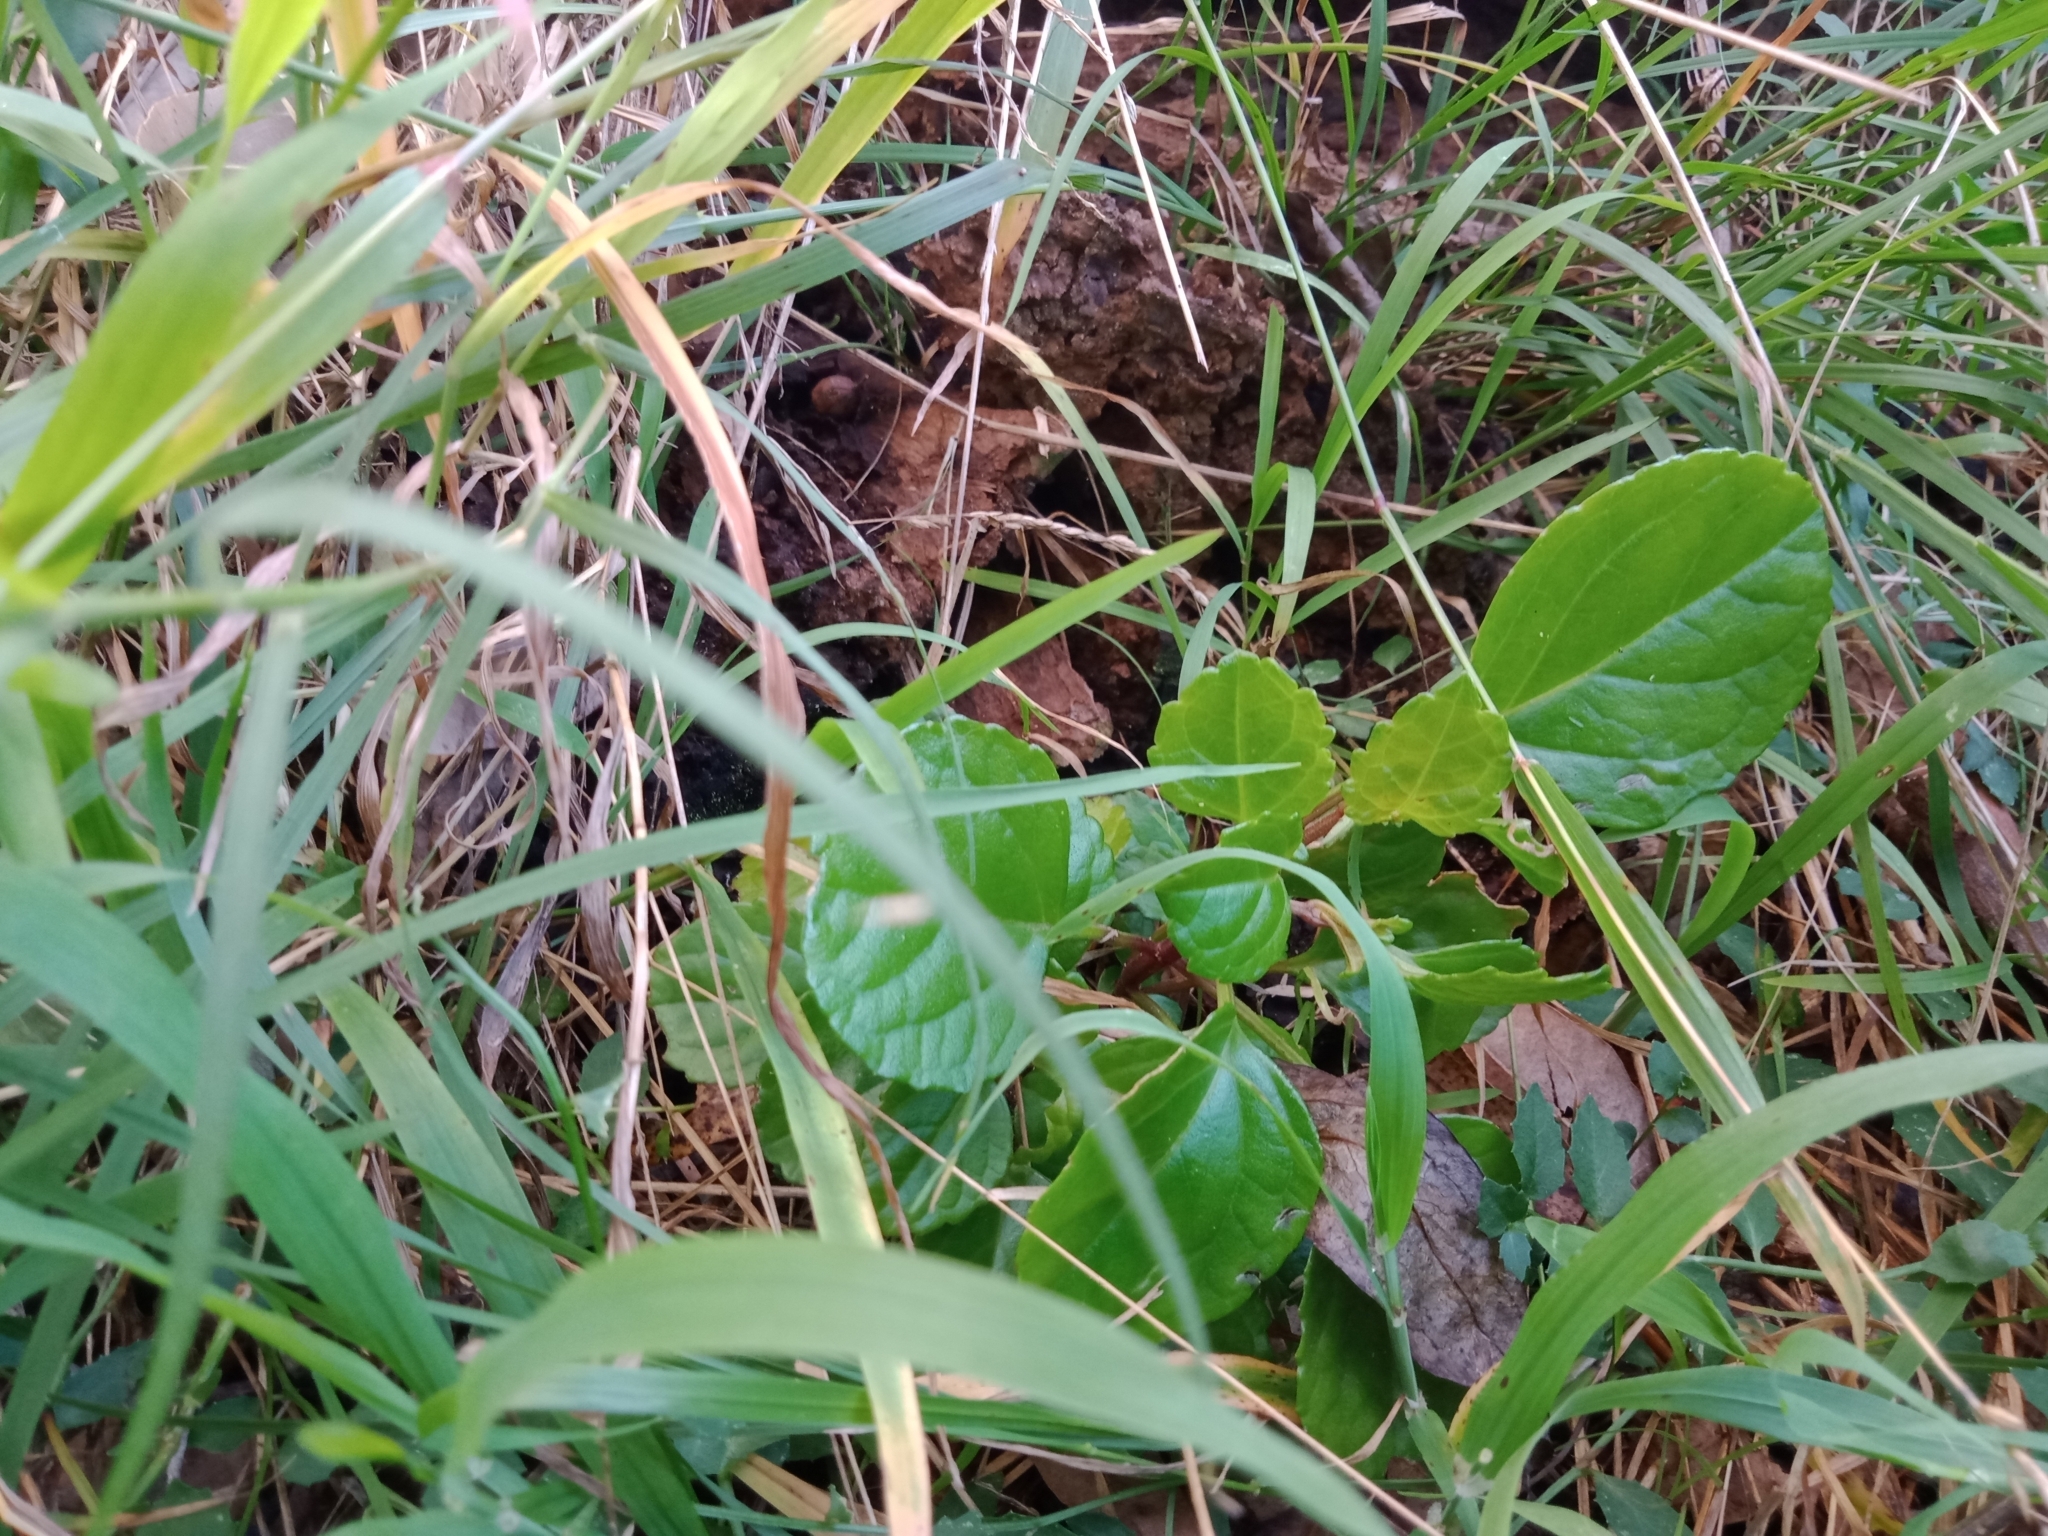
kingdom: Plantae
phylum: Tracheophyta
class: Magnoliopsida
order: Lamiales
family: Lamiaceae
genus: Plectranthus
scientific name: Plectranthus verticillatus
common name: Whorled plectranthus
